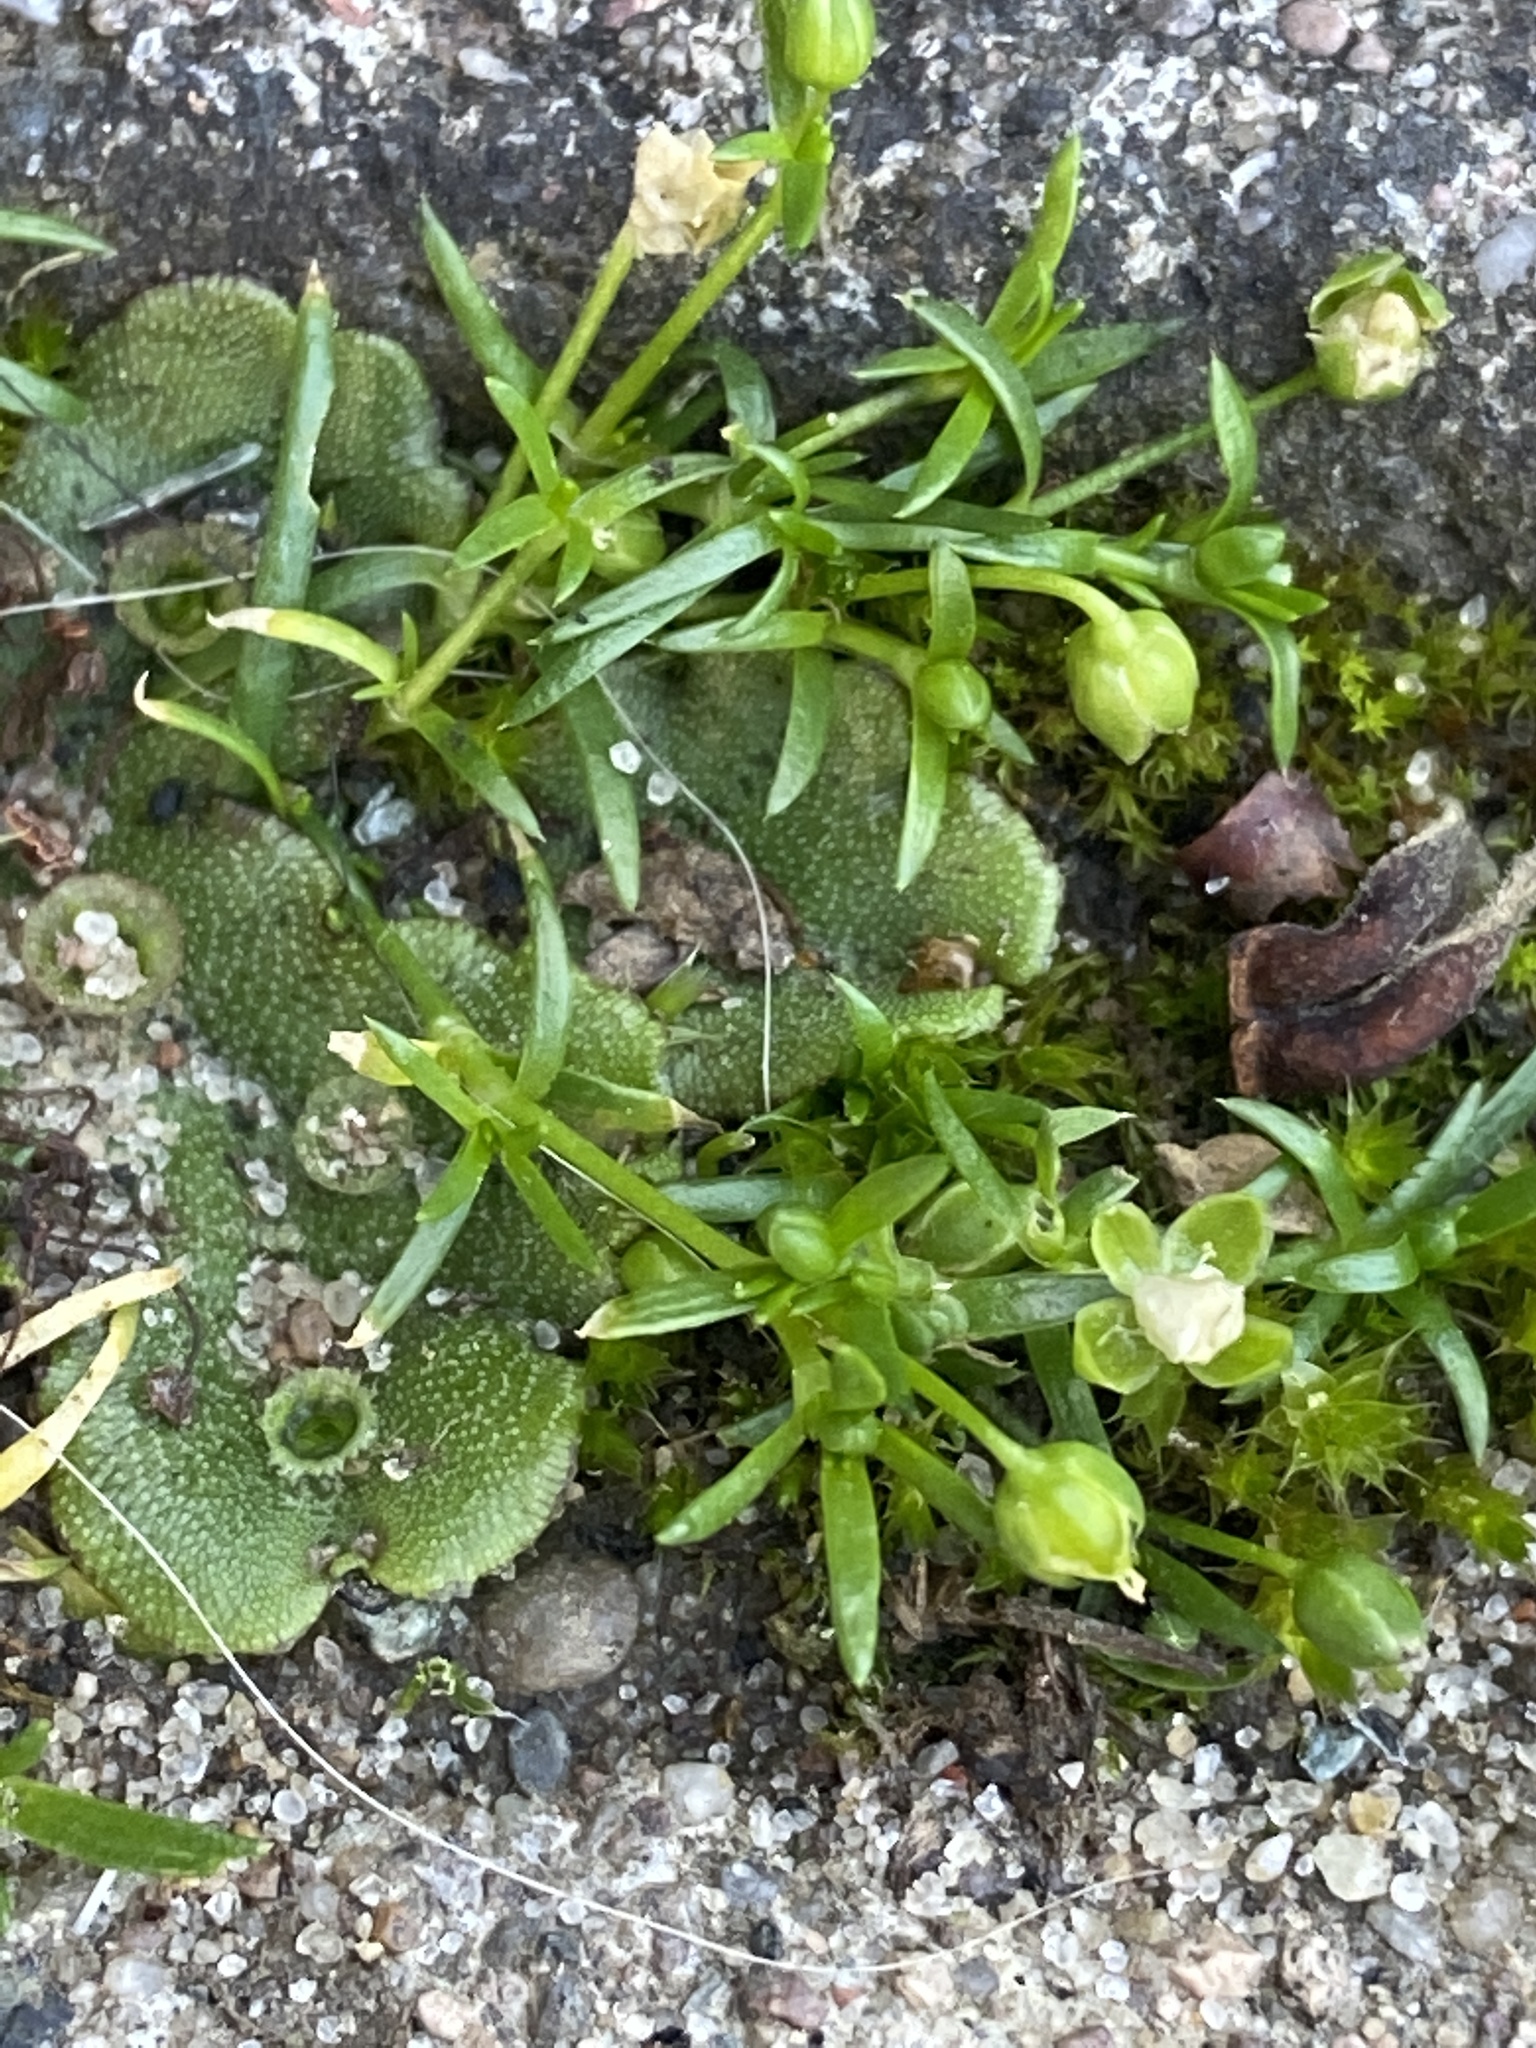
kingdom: Plantae
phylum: Tracheophyta
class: Magnoliopsida
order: Caryophyllales
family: Caryophyllaceae
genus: Sagina
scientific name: Sagina procumbens
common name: Procumbent pearlwort
